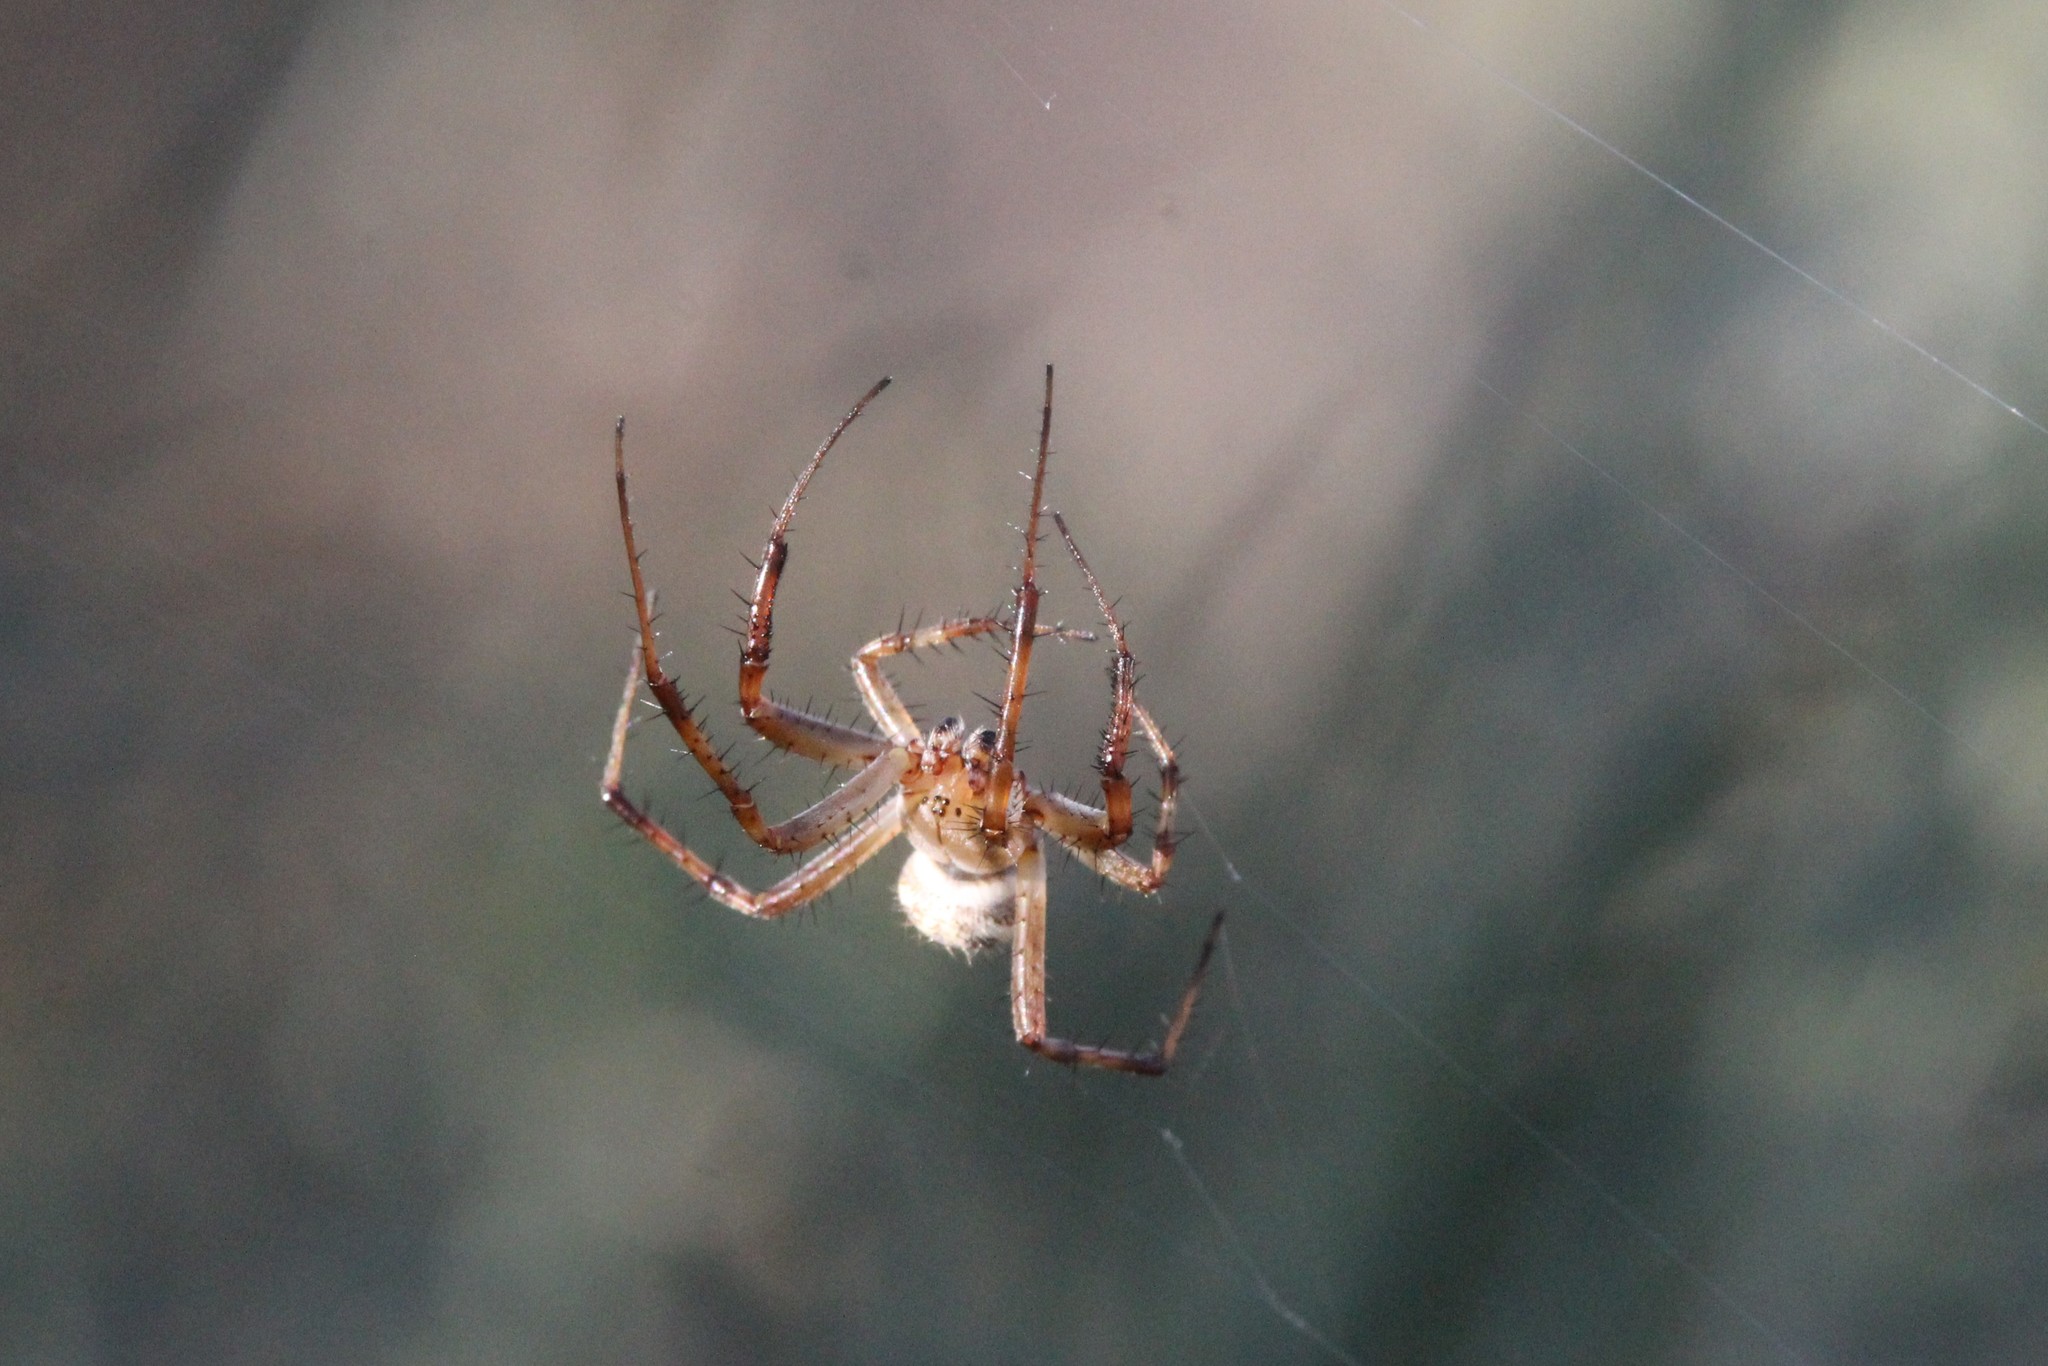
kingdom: Animalia
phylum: Arthropoda
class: Arachnida
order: Araneae
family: Araneidae
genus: Neoscona
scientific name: Neoscona oaxacensis
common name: Orb weavers
